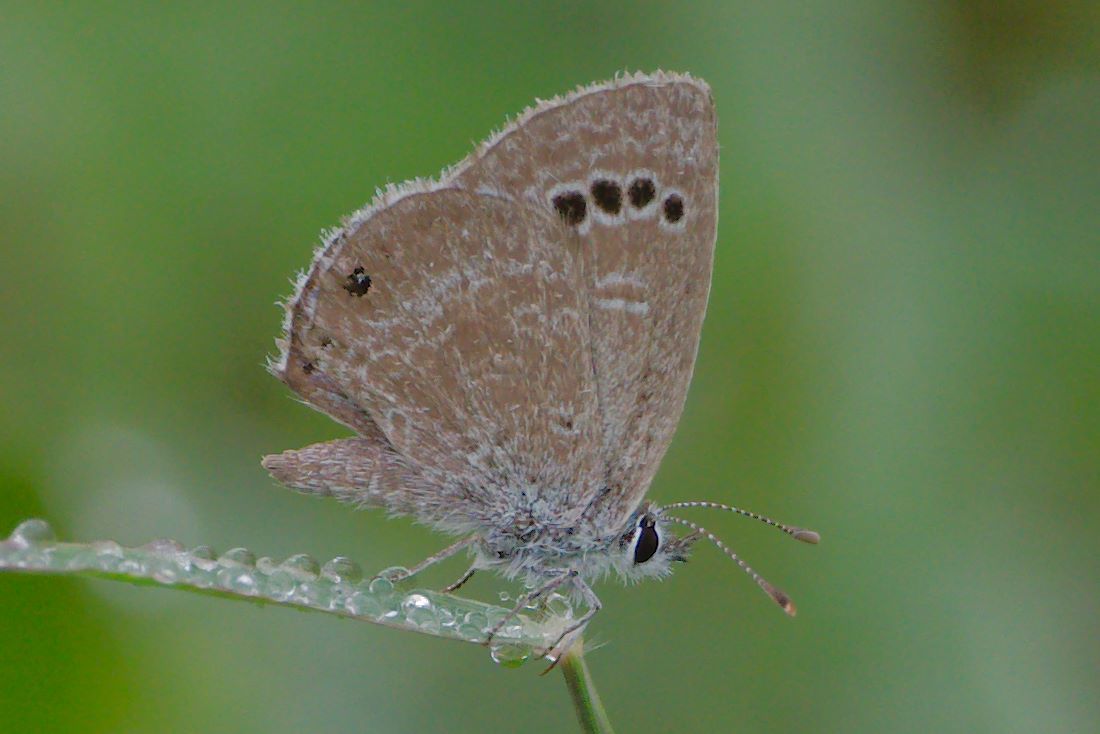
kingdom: Animalia
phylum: Arthropoda
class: Insecta
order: Lepidoptera
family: Lycaenidae
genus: Echinargus
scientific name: Echinargus isola
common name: Reakirt's blue
